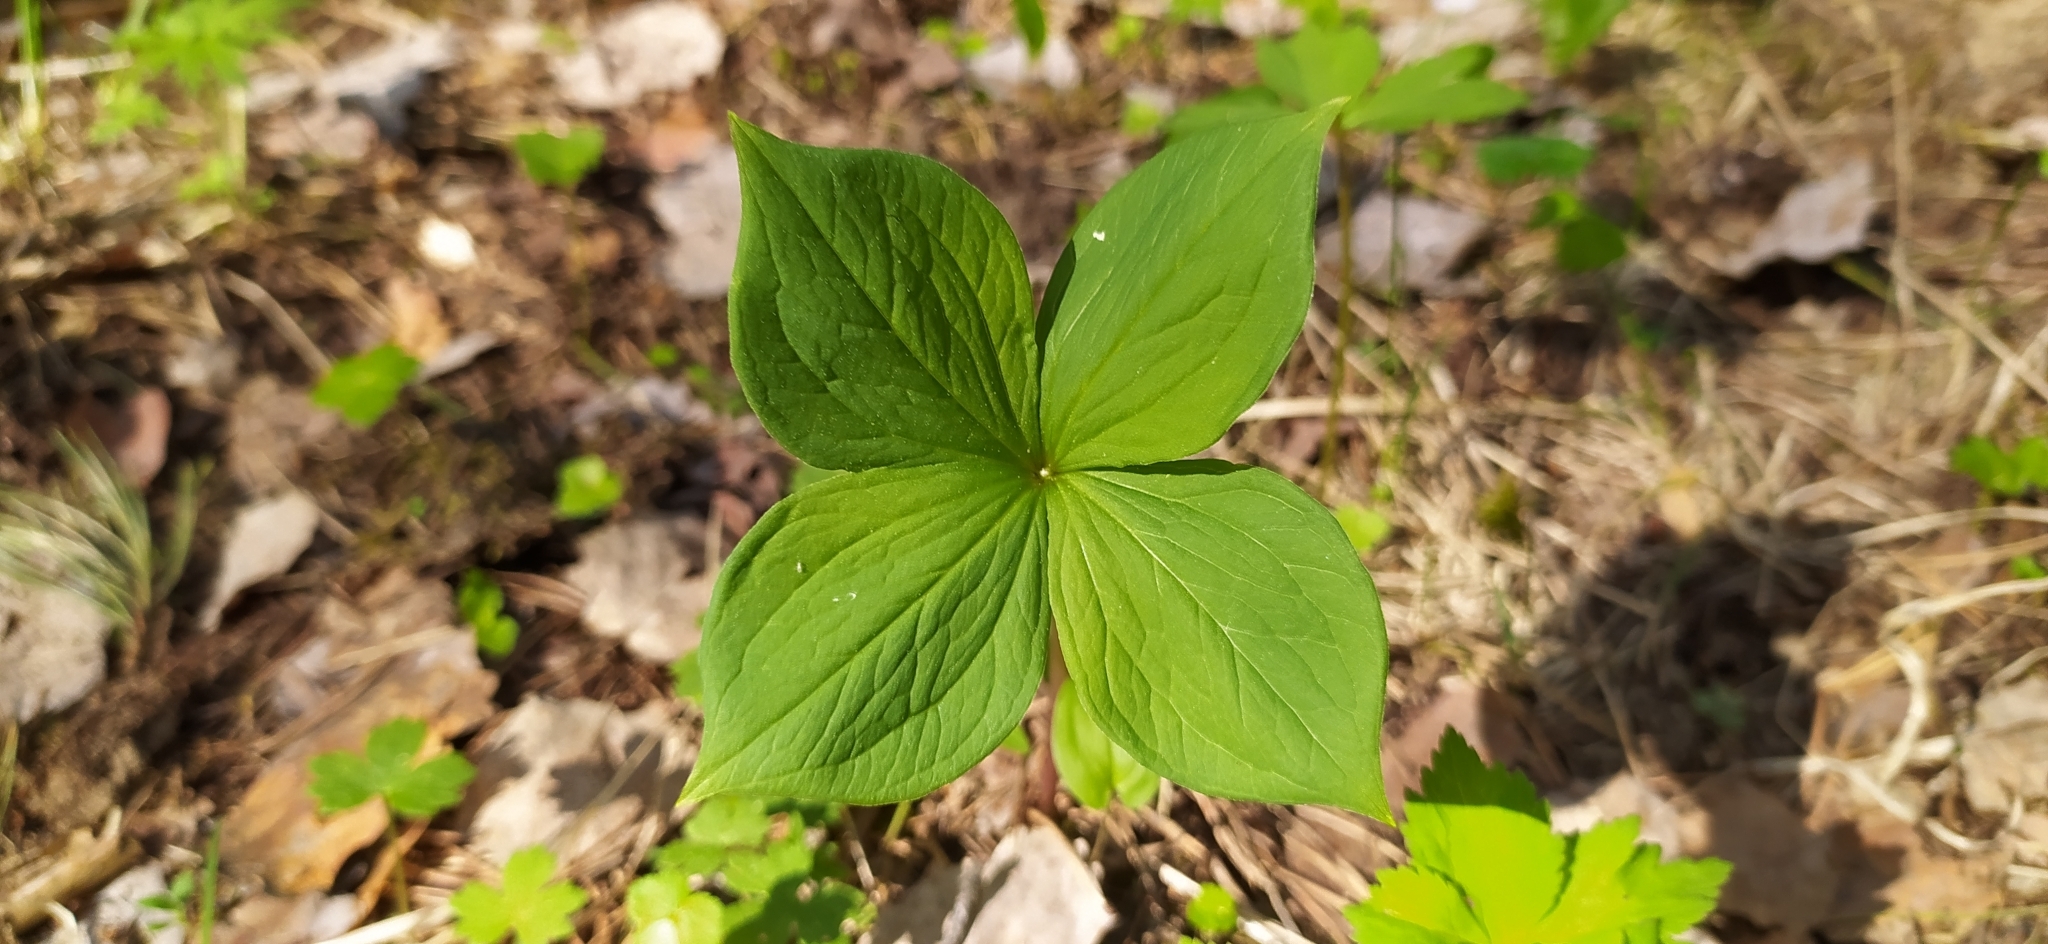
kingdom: Plantae
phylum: Tracheophyta
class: Liliopsida
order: Liliales
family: Melanthiaceae
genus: Paris
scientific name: Paris quadrifolia
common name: Herb-paris
